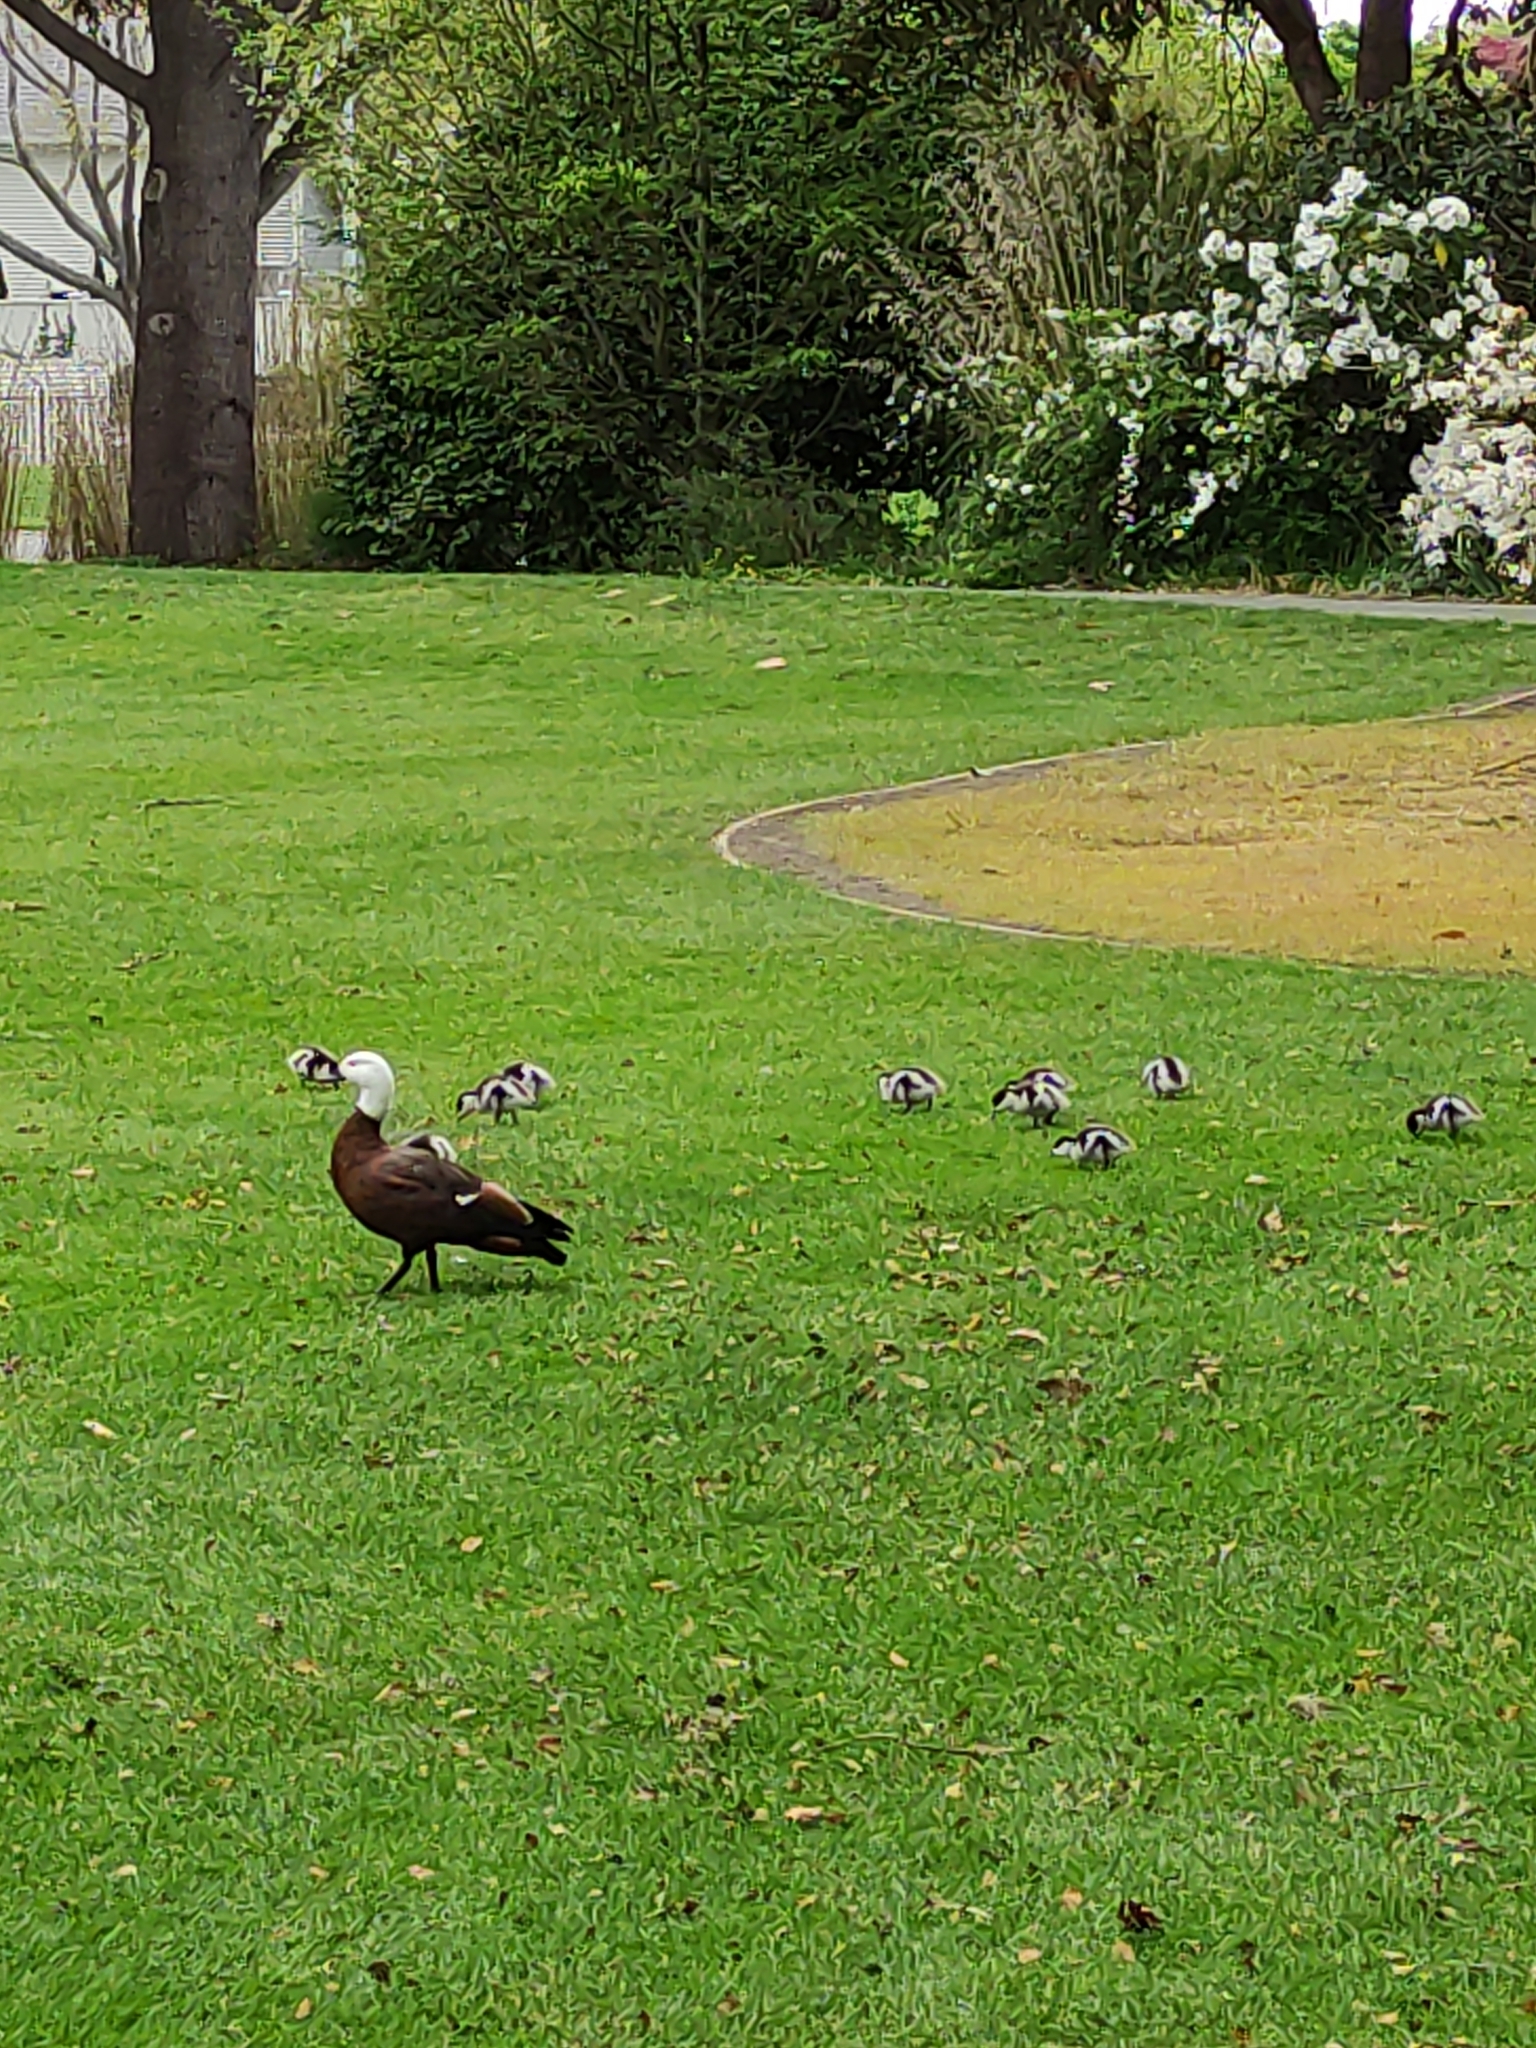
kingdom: Animalia
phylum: Chordata
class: Aves
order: Anseriformes
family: Anatidae
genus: Tadorna
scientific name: Tadorna variegata
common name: Paradise shelduck
